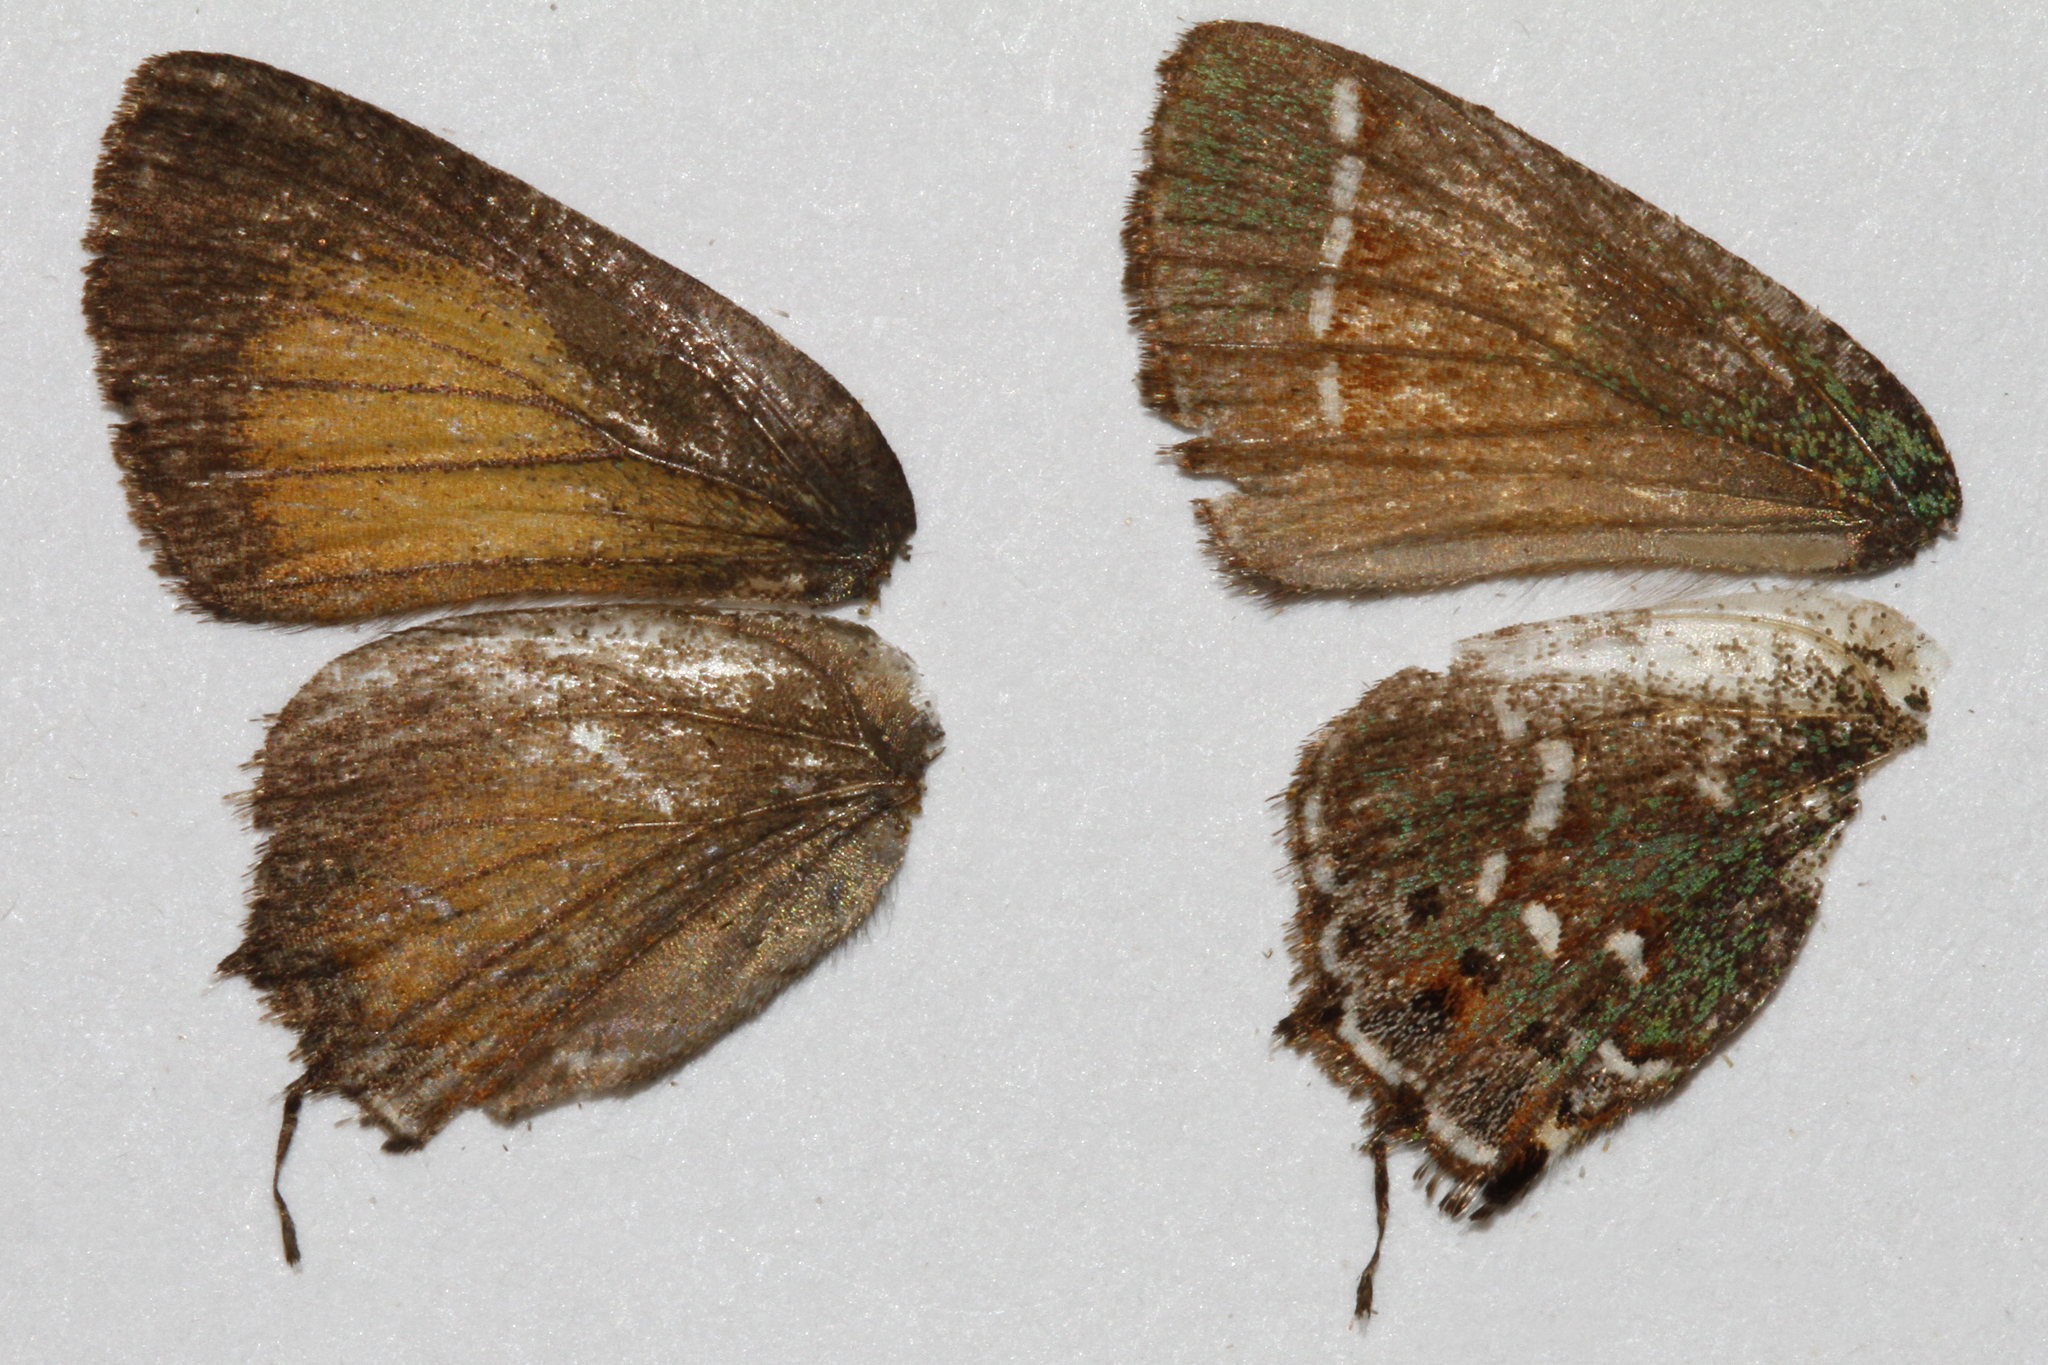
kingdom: Animalia
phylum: Arthropoda
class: Insecta
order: Lepidoptera
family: Lycaenidae
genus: Mitoura
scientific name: Mitoura gryneus
